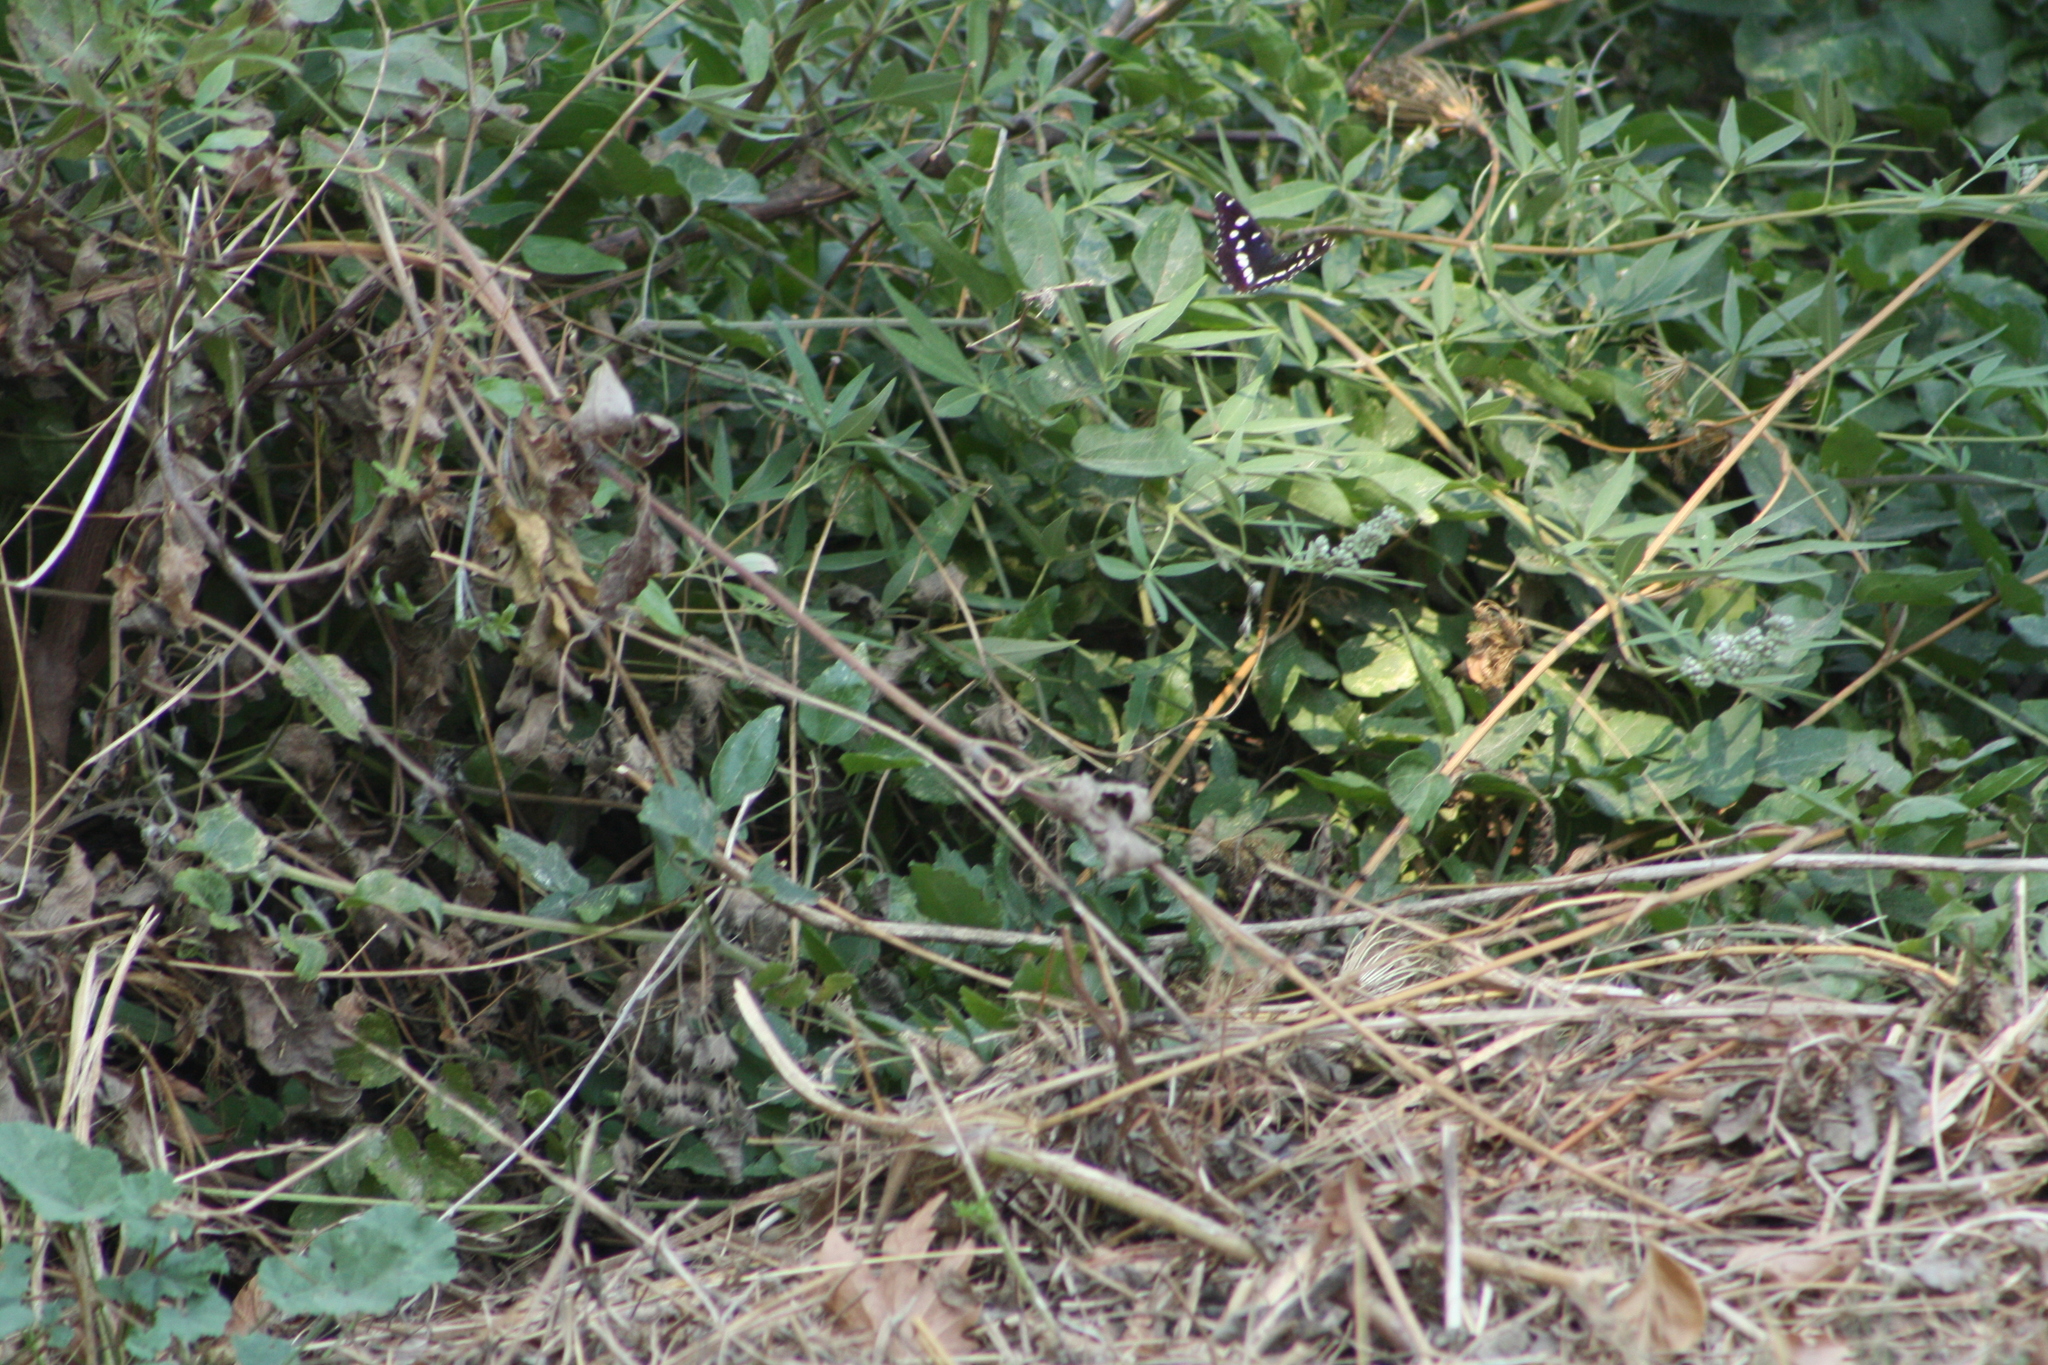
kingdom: Animalia
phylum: Arthropoda
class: Insecta
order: Lepidoptera
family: Nymphalidae
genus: Limenitis
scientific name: Limenitis reducta
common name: Southern white admiral
